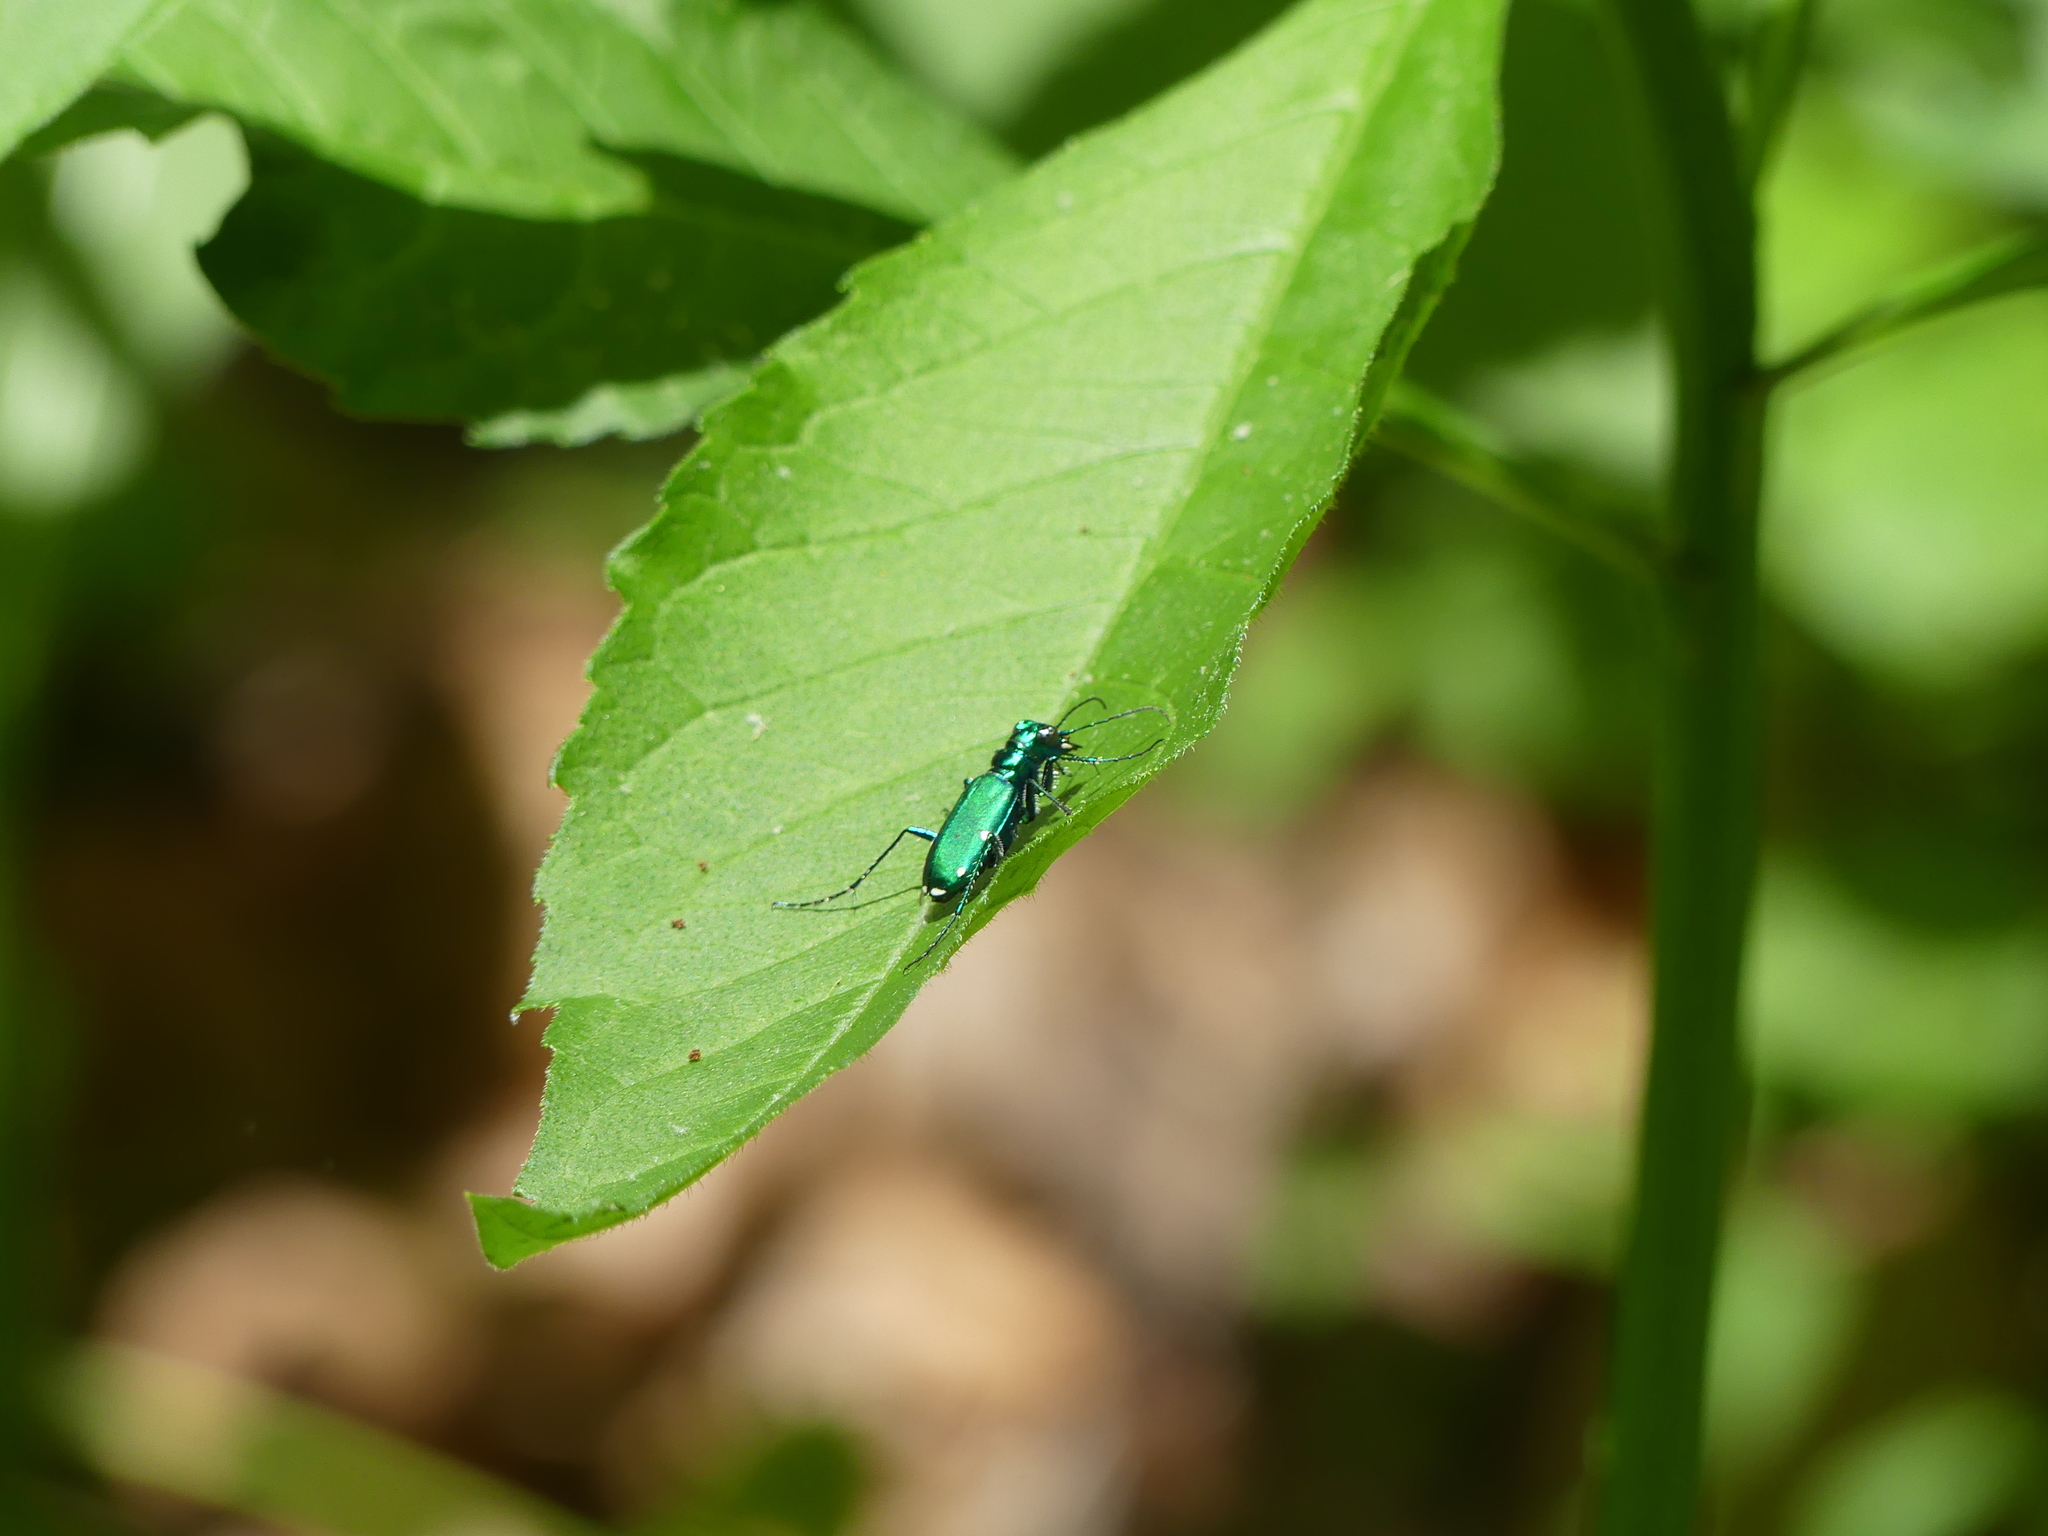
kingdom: Animalia
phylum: Arthropoda
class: Insecta
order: Coleoptera
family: Carabidae
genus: Cicindela
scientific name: Cicindela sexguttata
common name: Six-spotted tiger beetle
